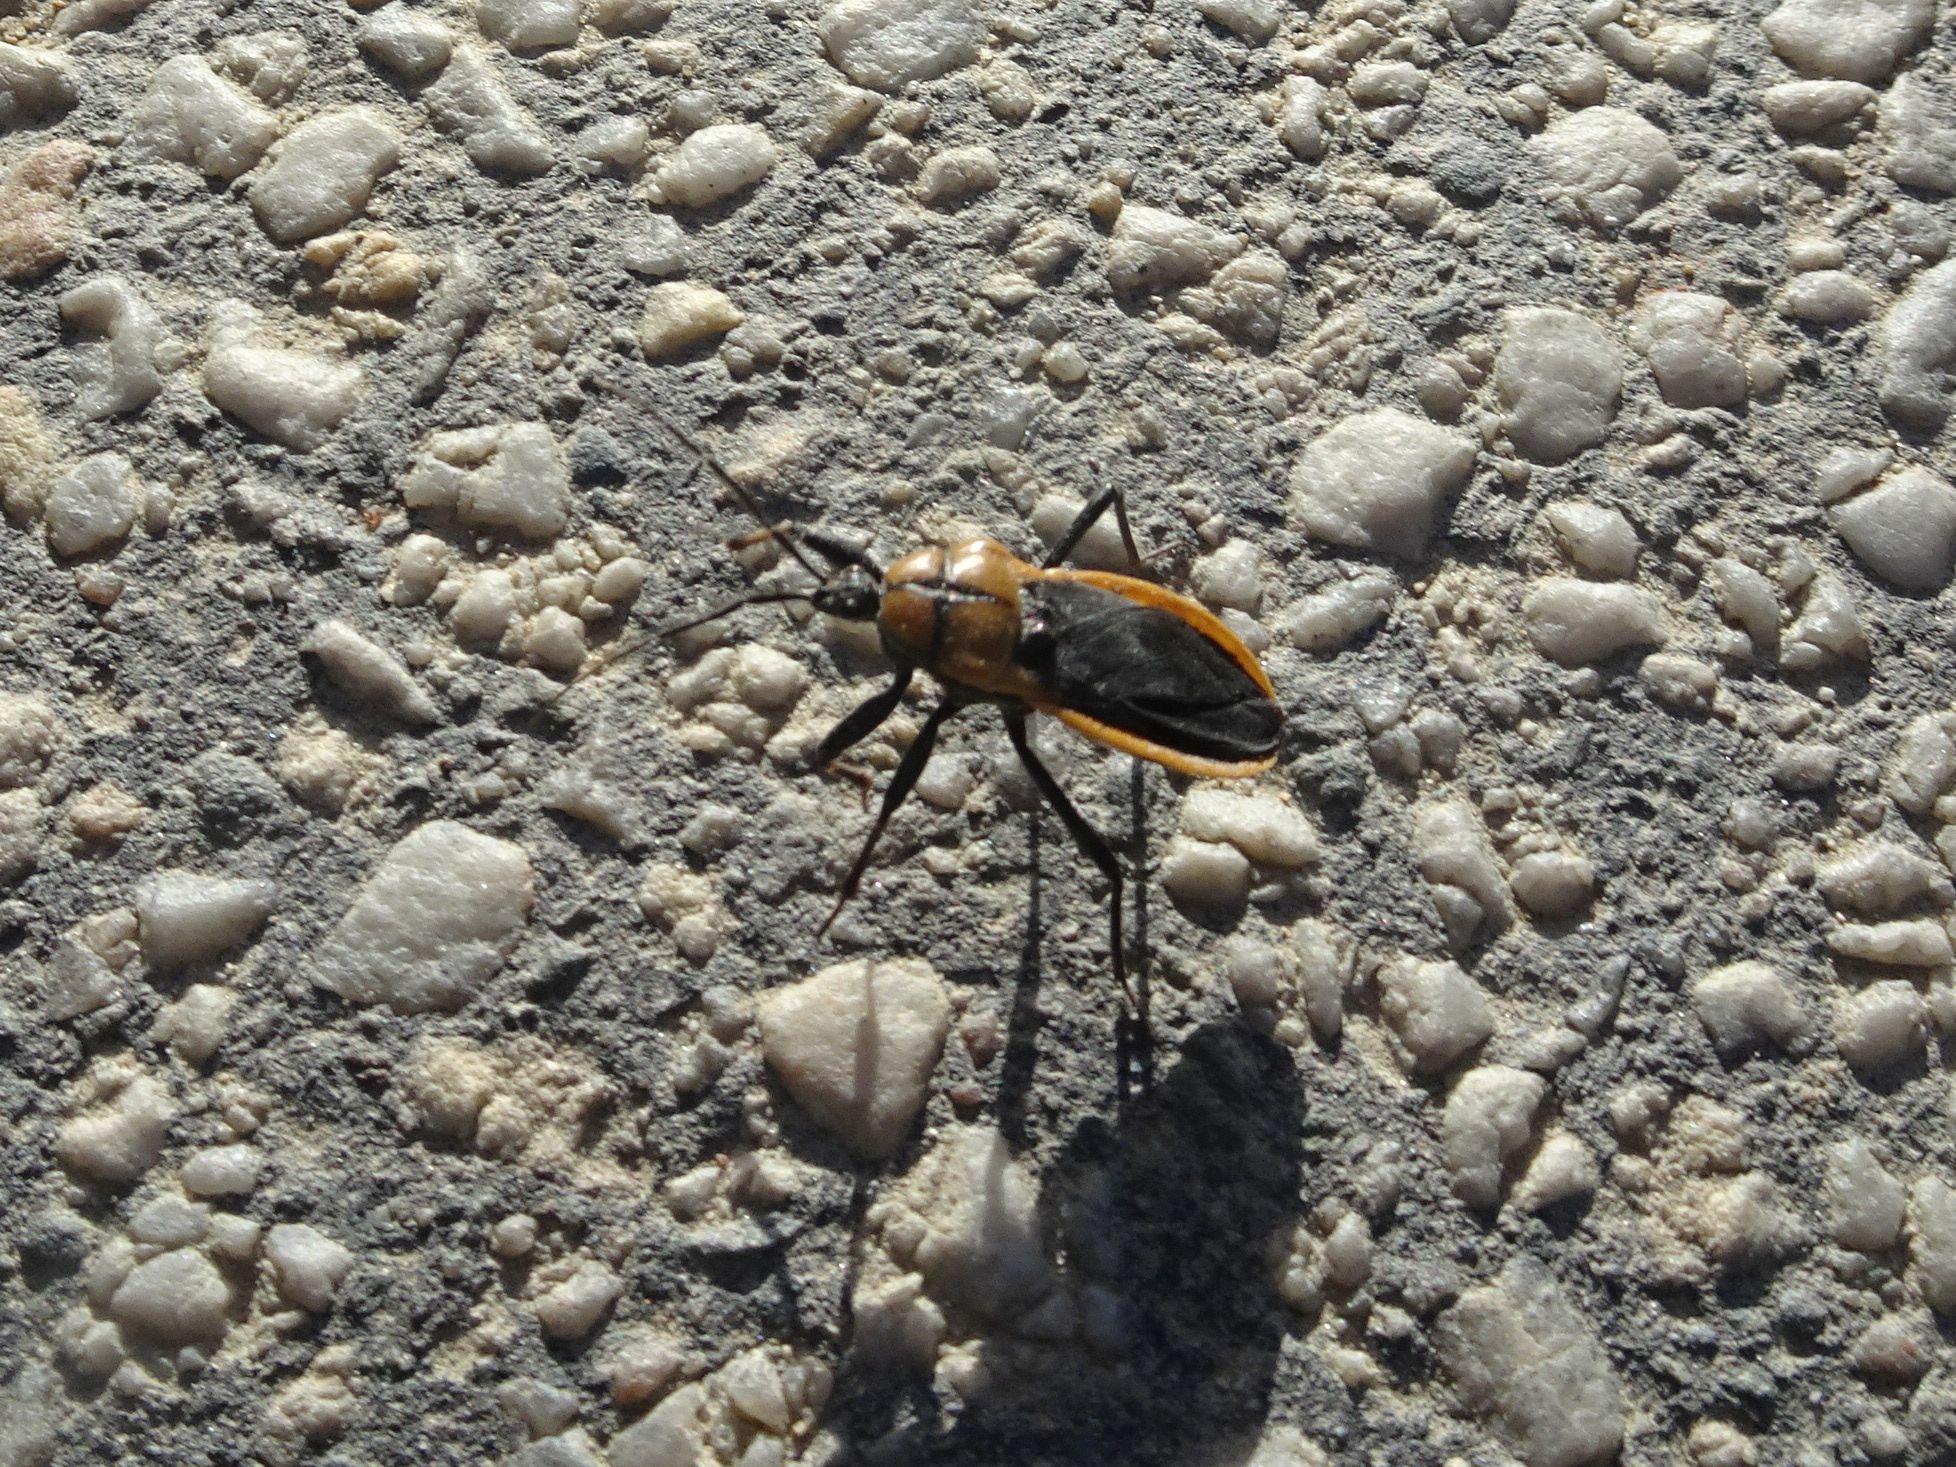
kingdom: Animalia
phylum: Arthropoda
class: Insecta
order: Hemiptera
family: Reduviidae
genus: Ectrichodia
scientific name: Ectrichodia crux
